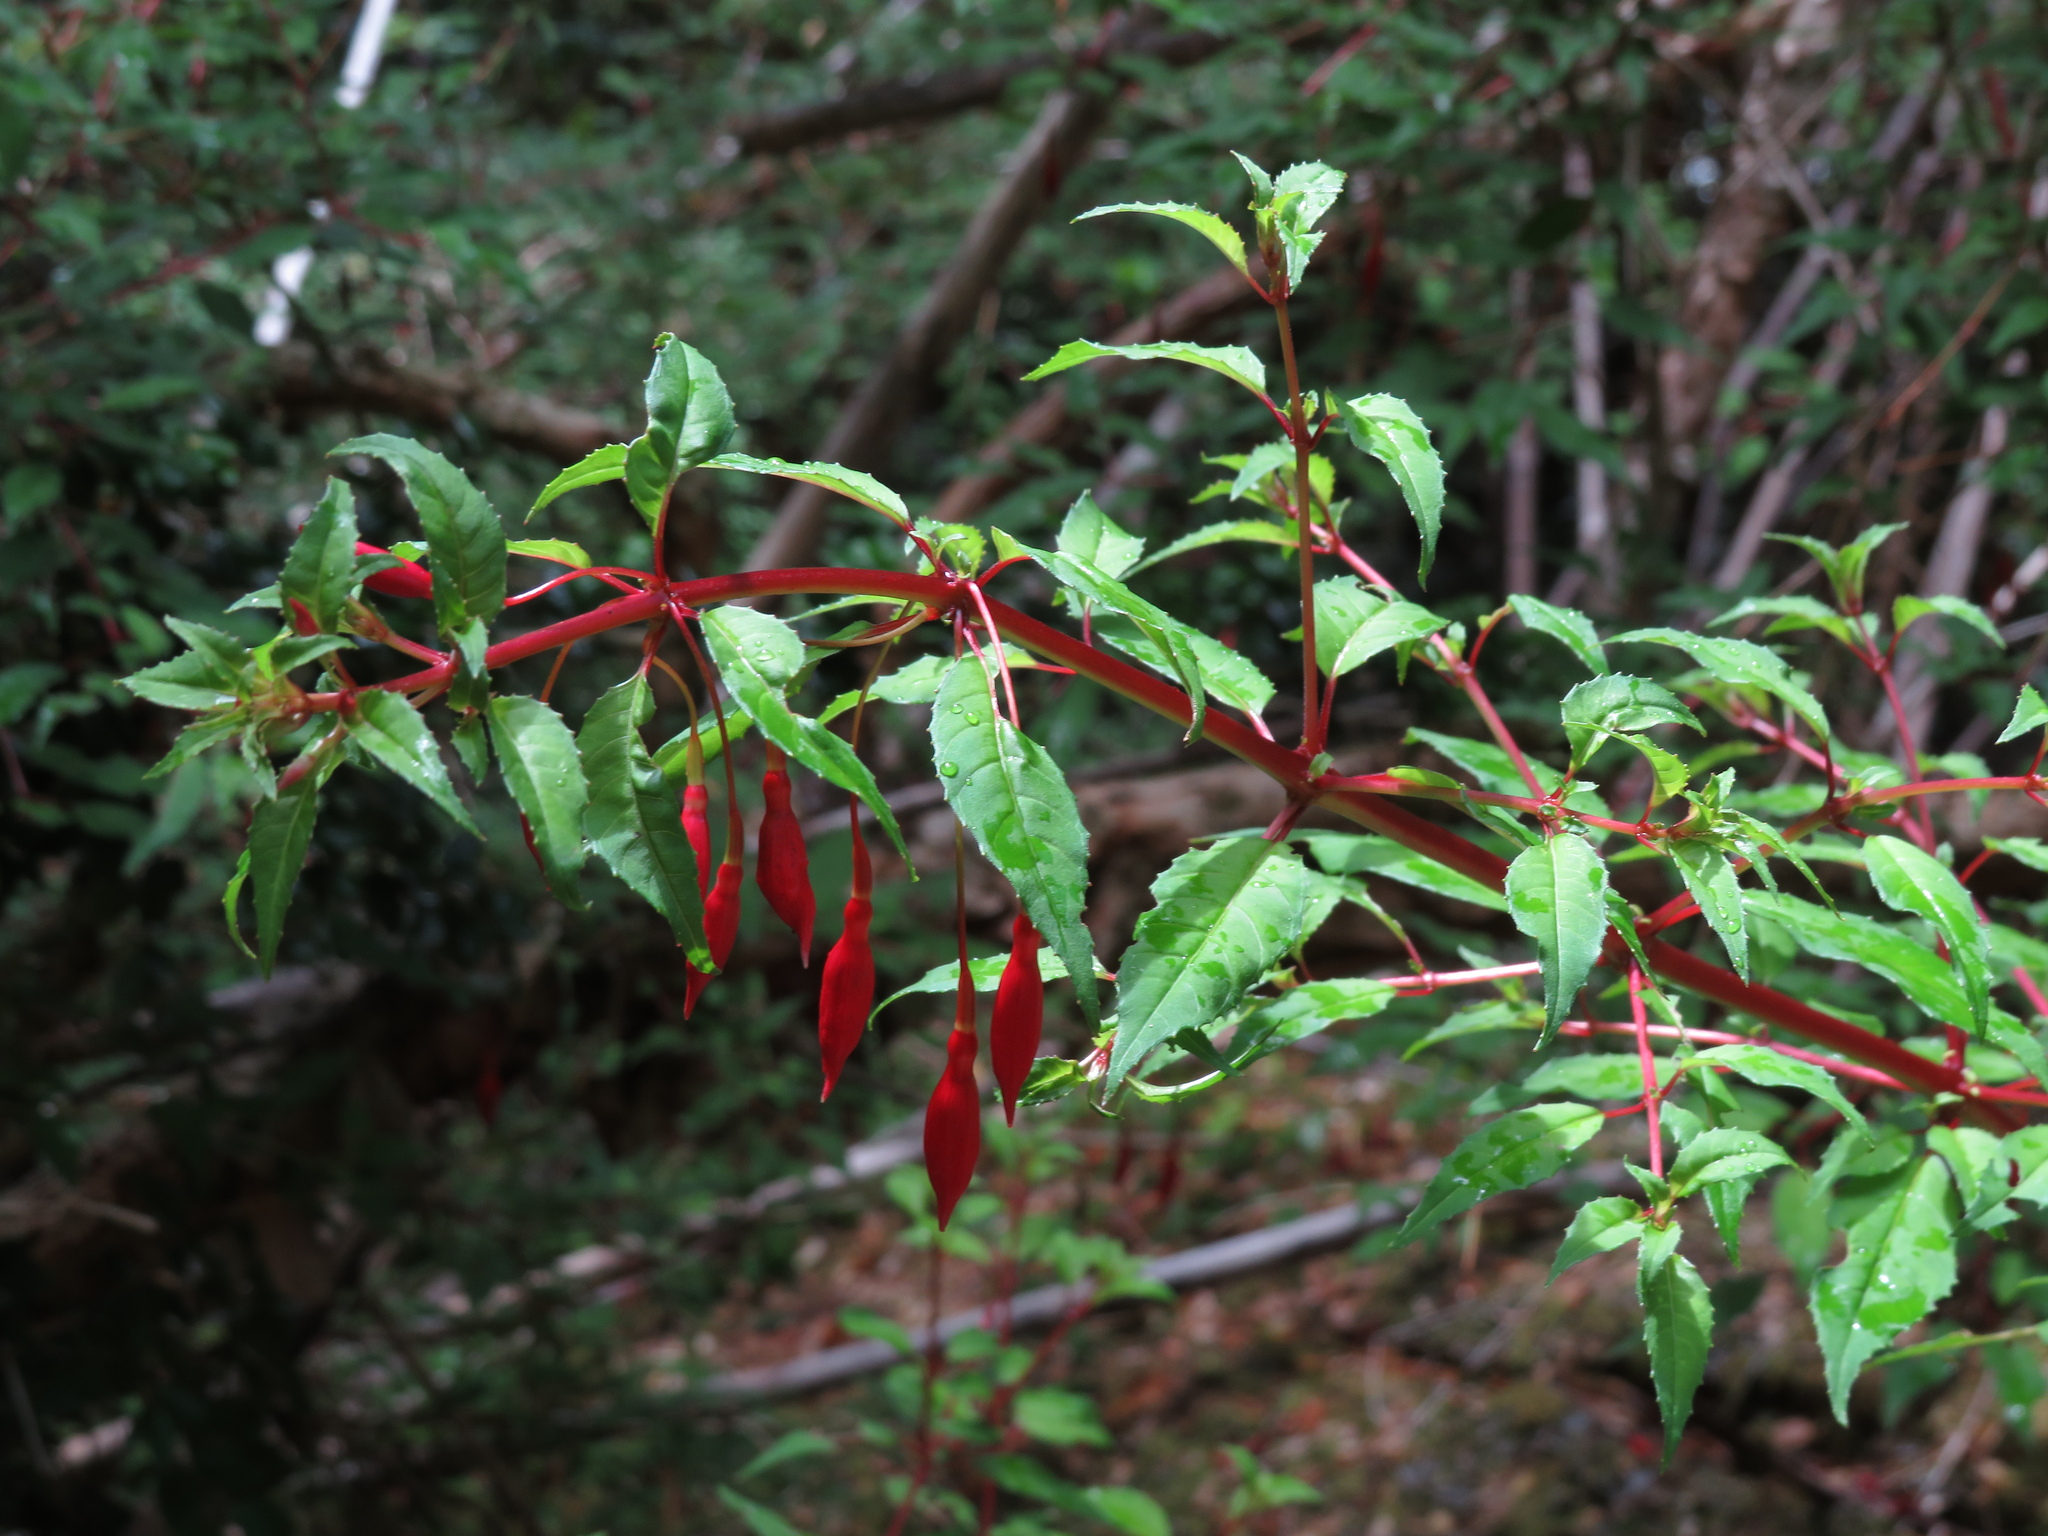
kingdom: Plantae
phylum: Tracheophyta
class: Magnoliopsida
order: Myrtales
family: Onagraceae
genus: Fuchsia
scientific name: Fuchsia magellanica
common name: Hardy fuchsia
